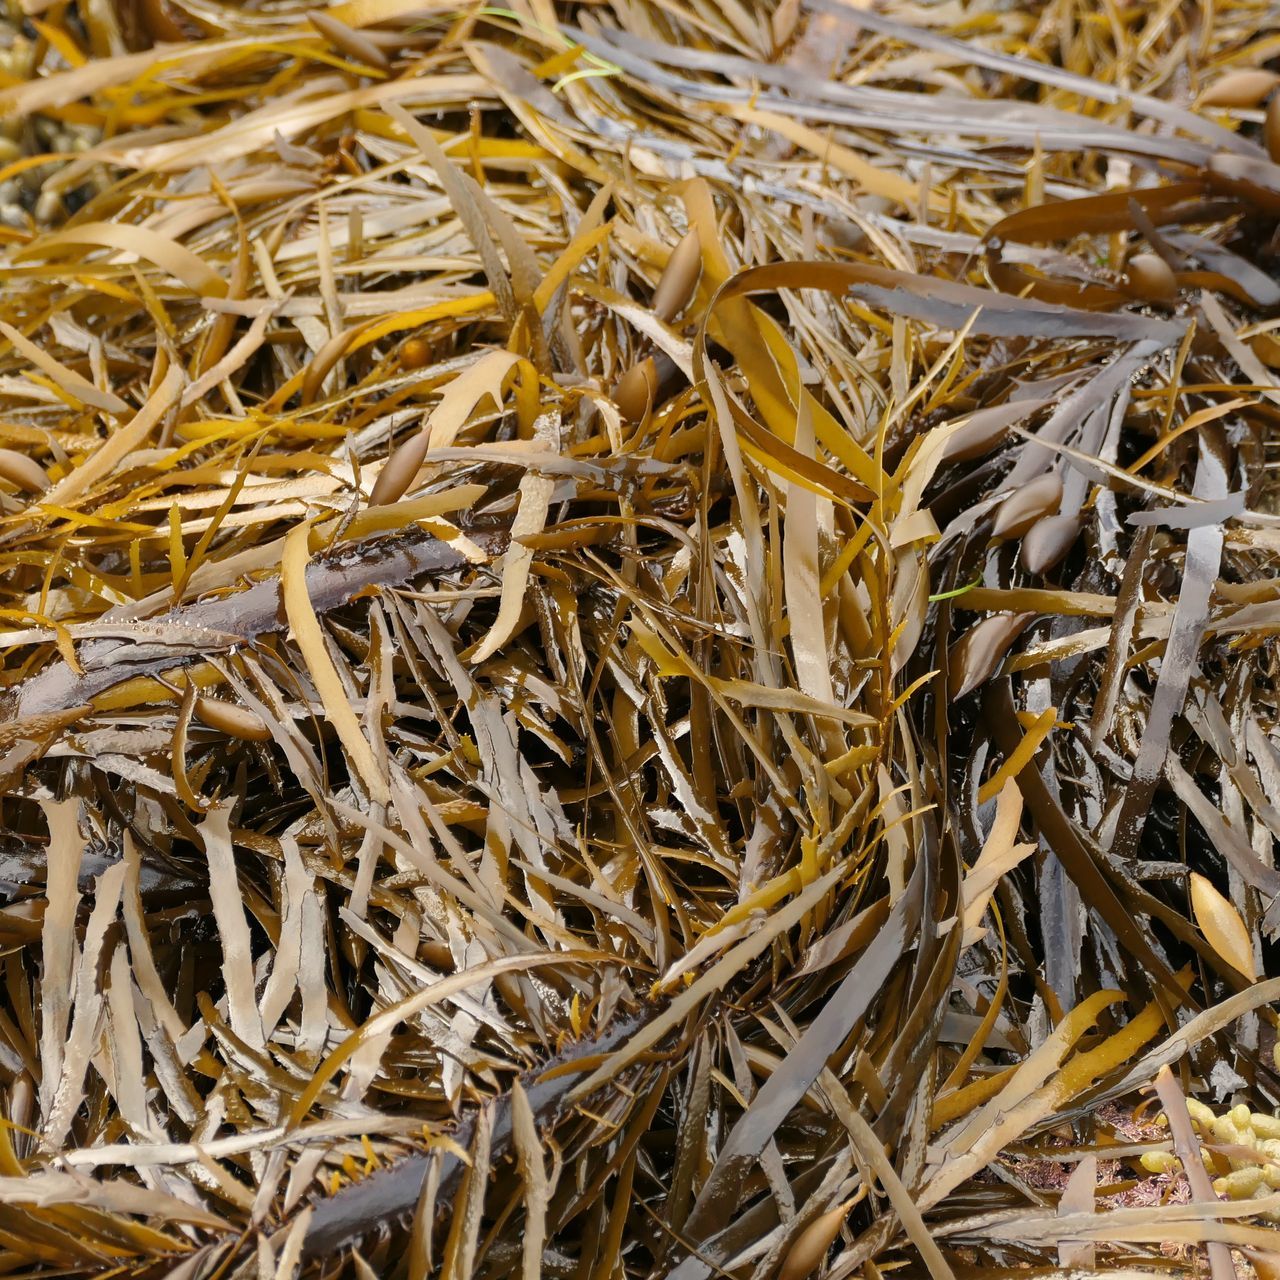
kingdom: Chromista
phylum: Ochrophyta
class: Phaeophyceae
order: Fucales
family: Seirococcaceae
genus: Phyllospora
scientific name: Phyllospora
